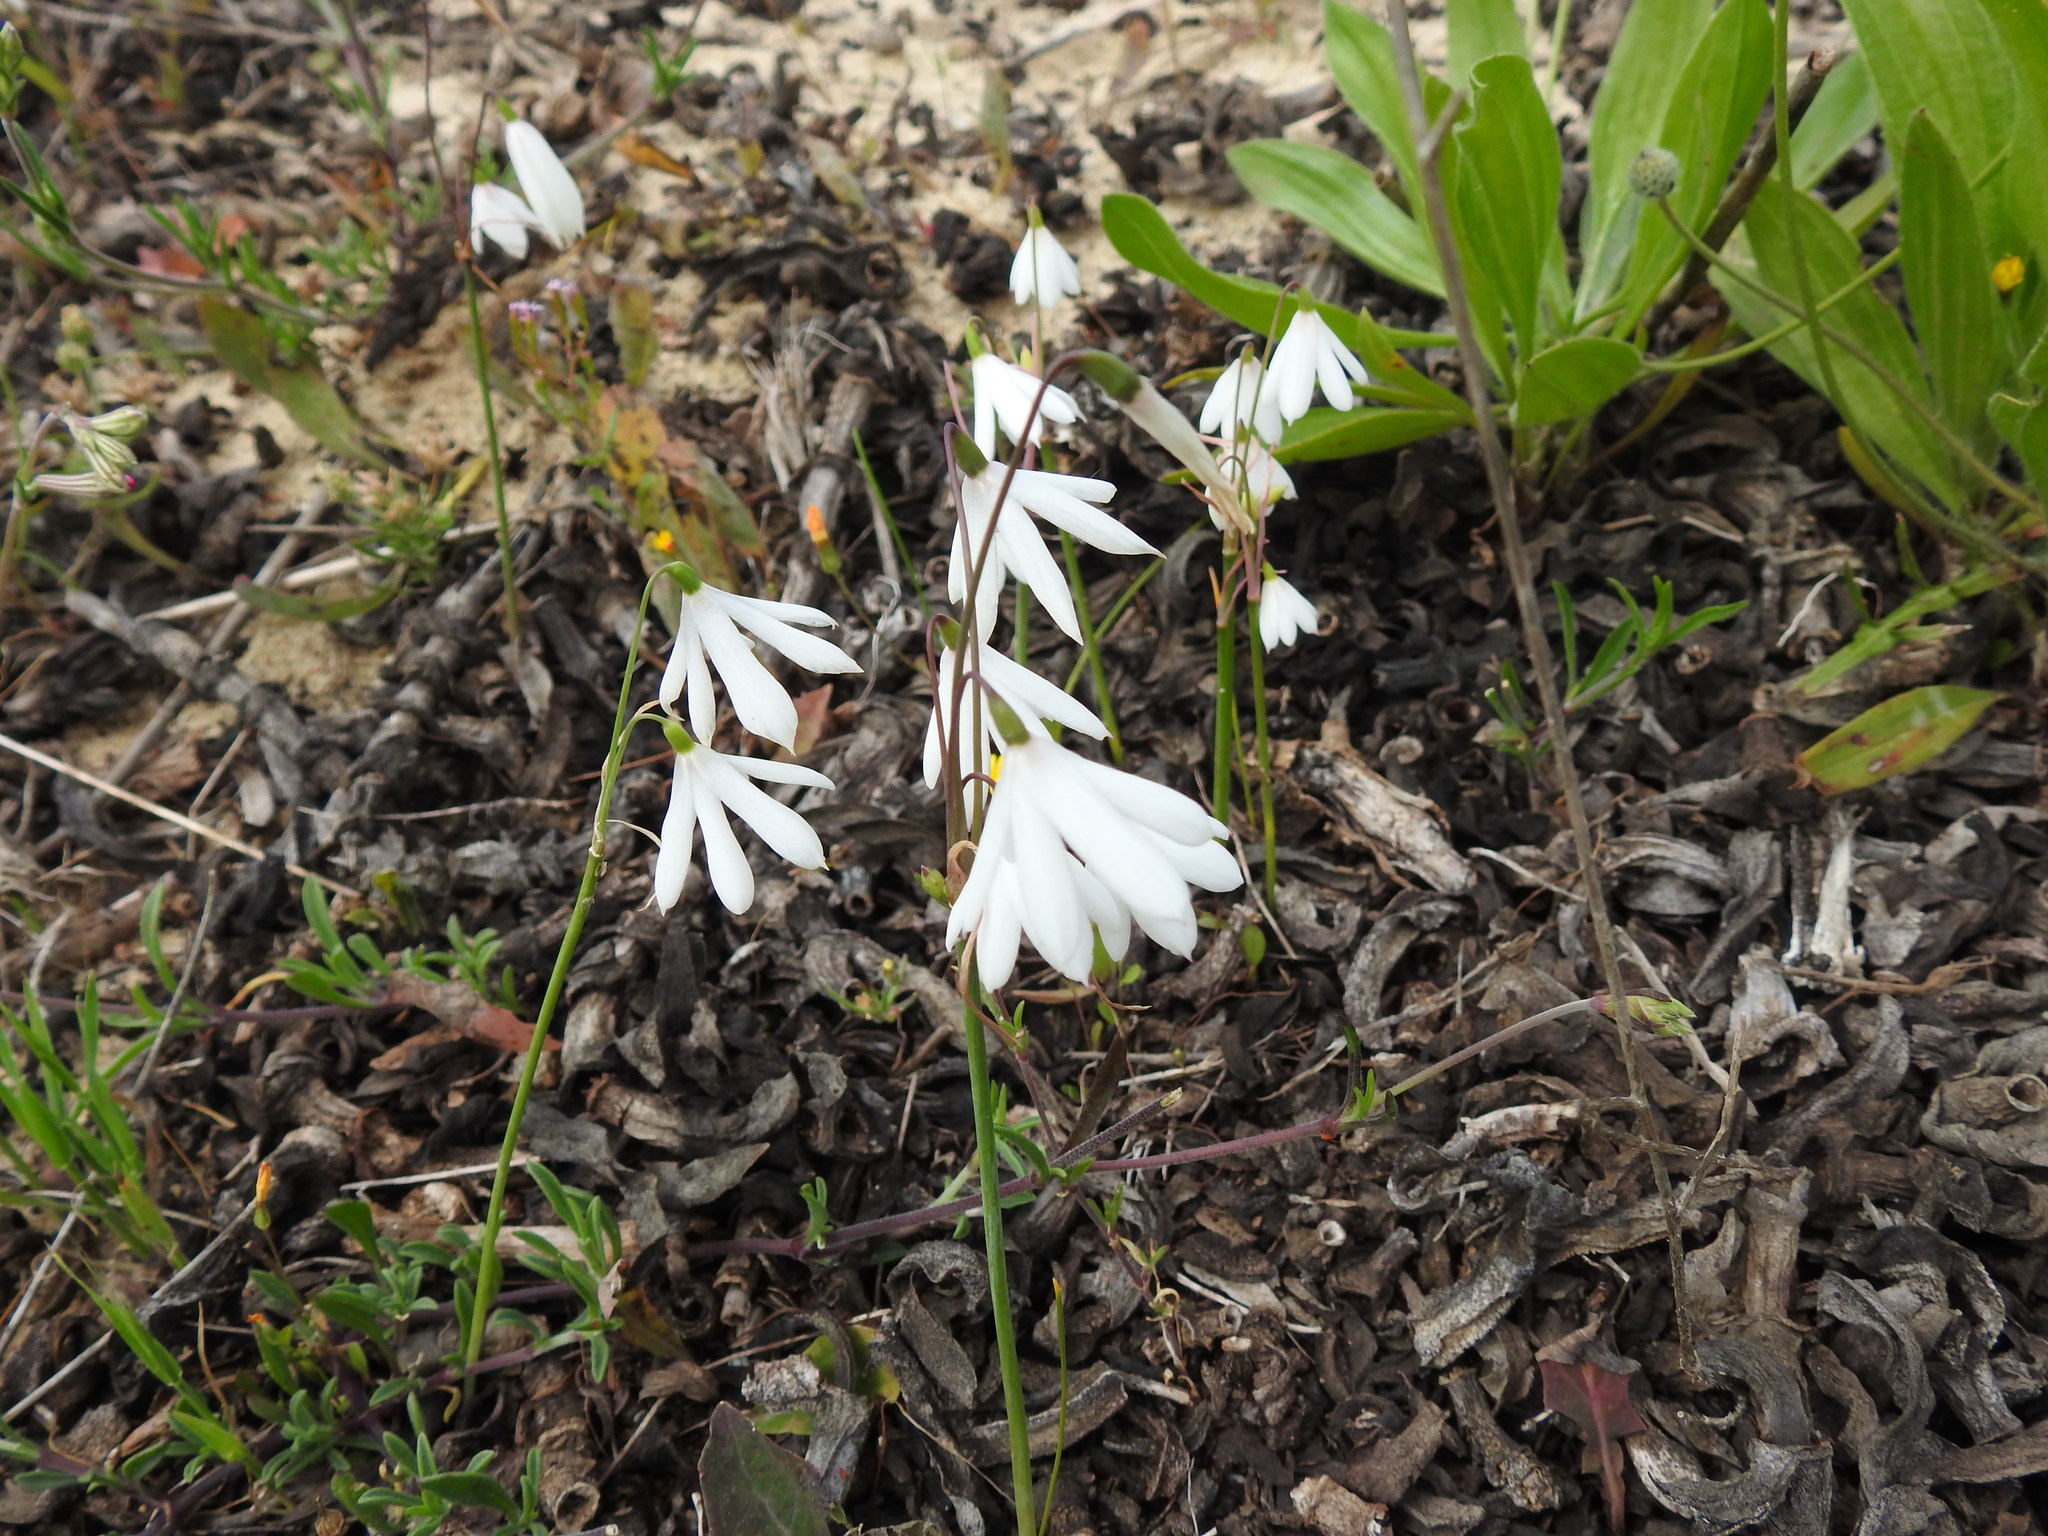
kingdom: Plantae
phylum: Tracheophyta
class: Liliopsida
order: Asparagales
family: Amaryllidaceae
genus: Acis
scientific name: Acis trichophylla
